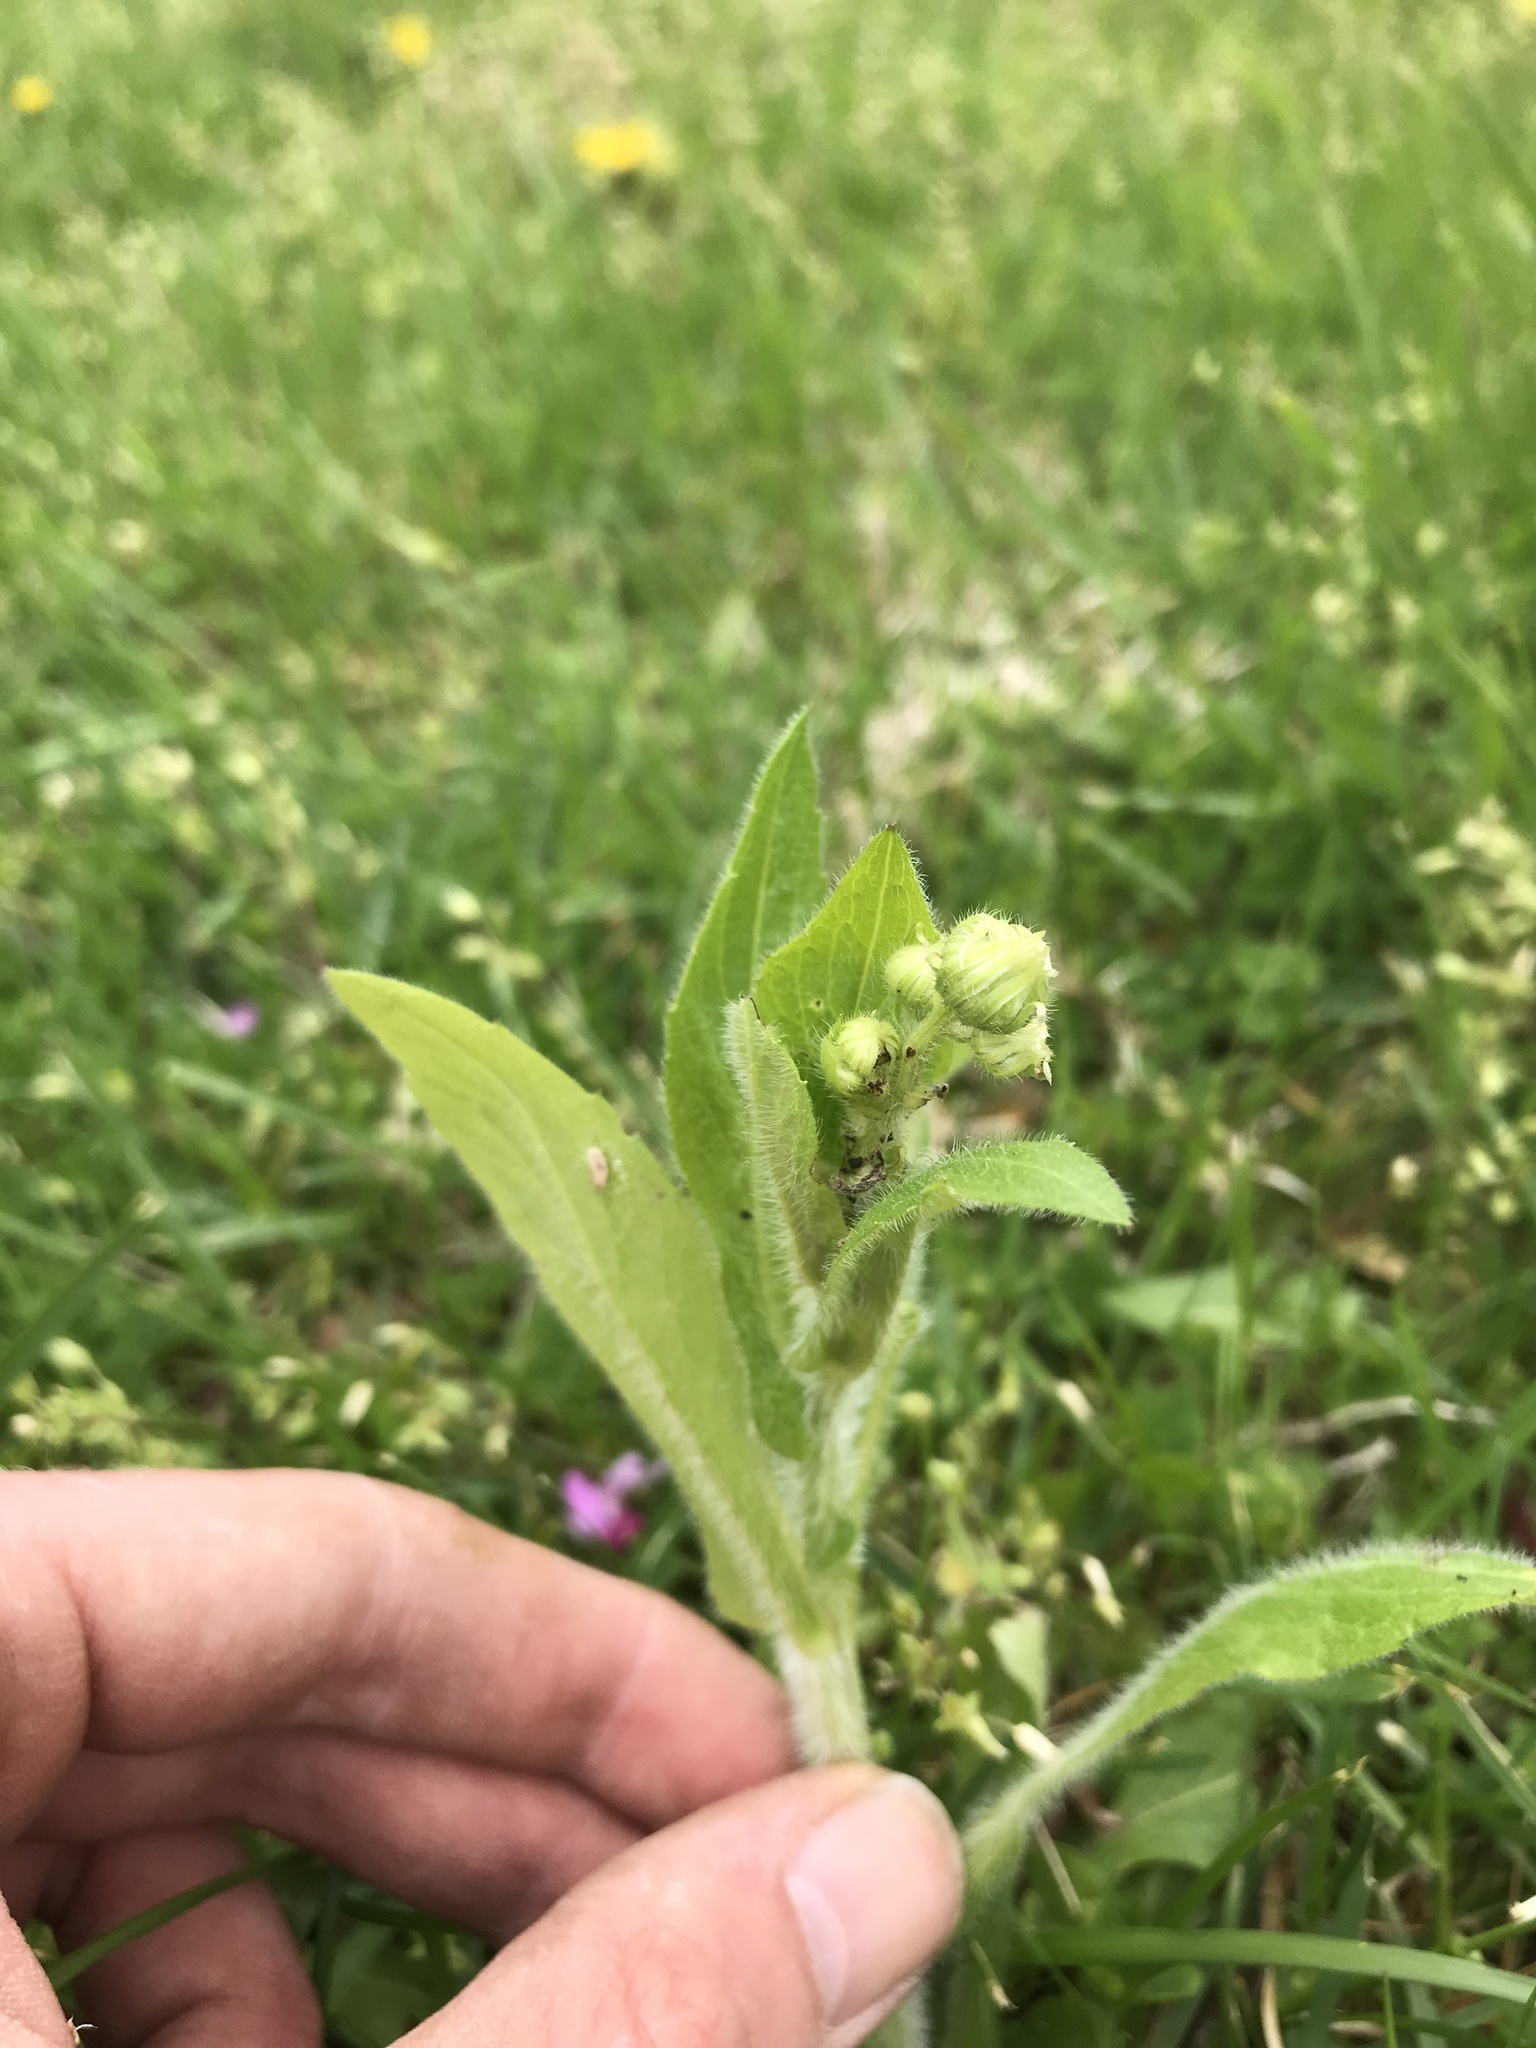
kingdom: Plantae
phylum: Tracheophyta
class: Magnoliopsida
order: Asterales
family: Asteraceae
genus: Erigeron
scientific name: Erigeron philadelphicus
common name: Robin's-plantain
